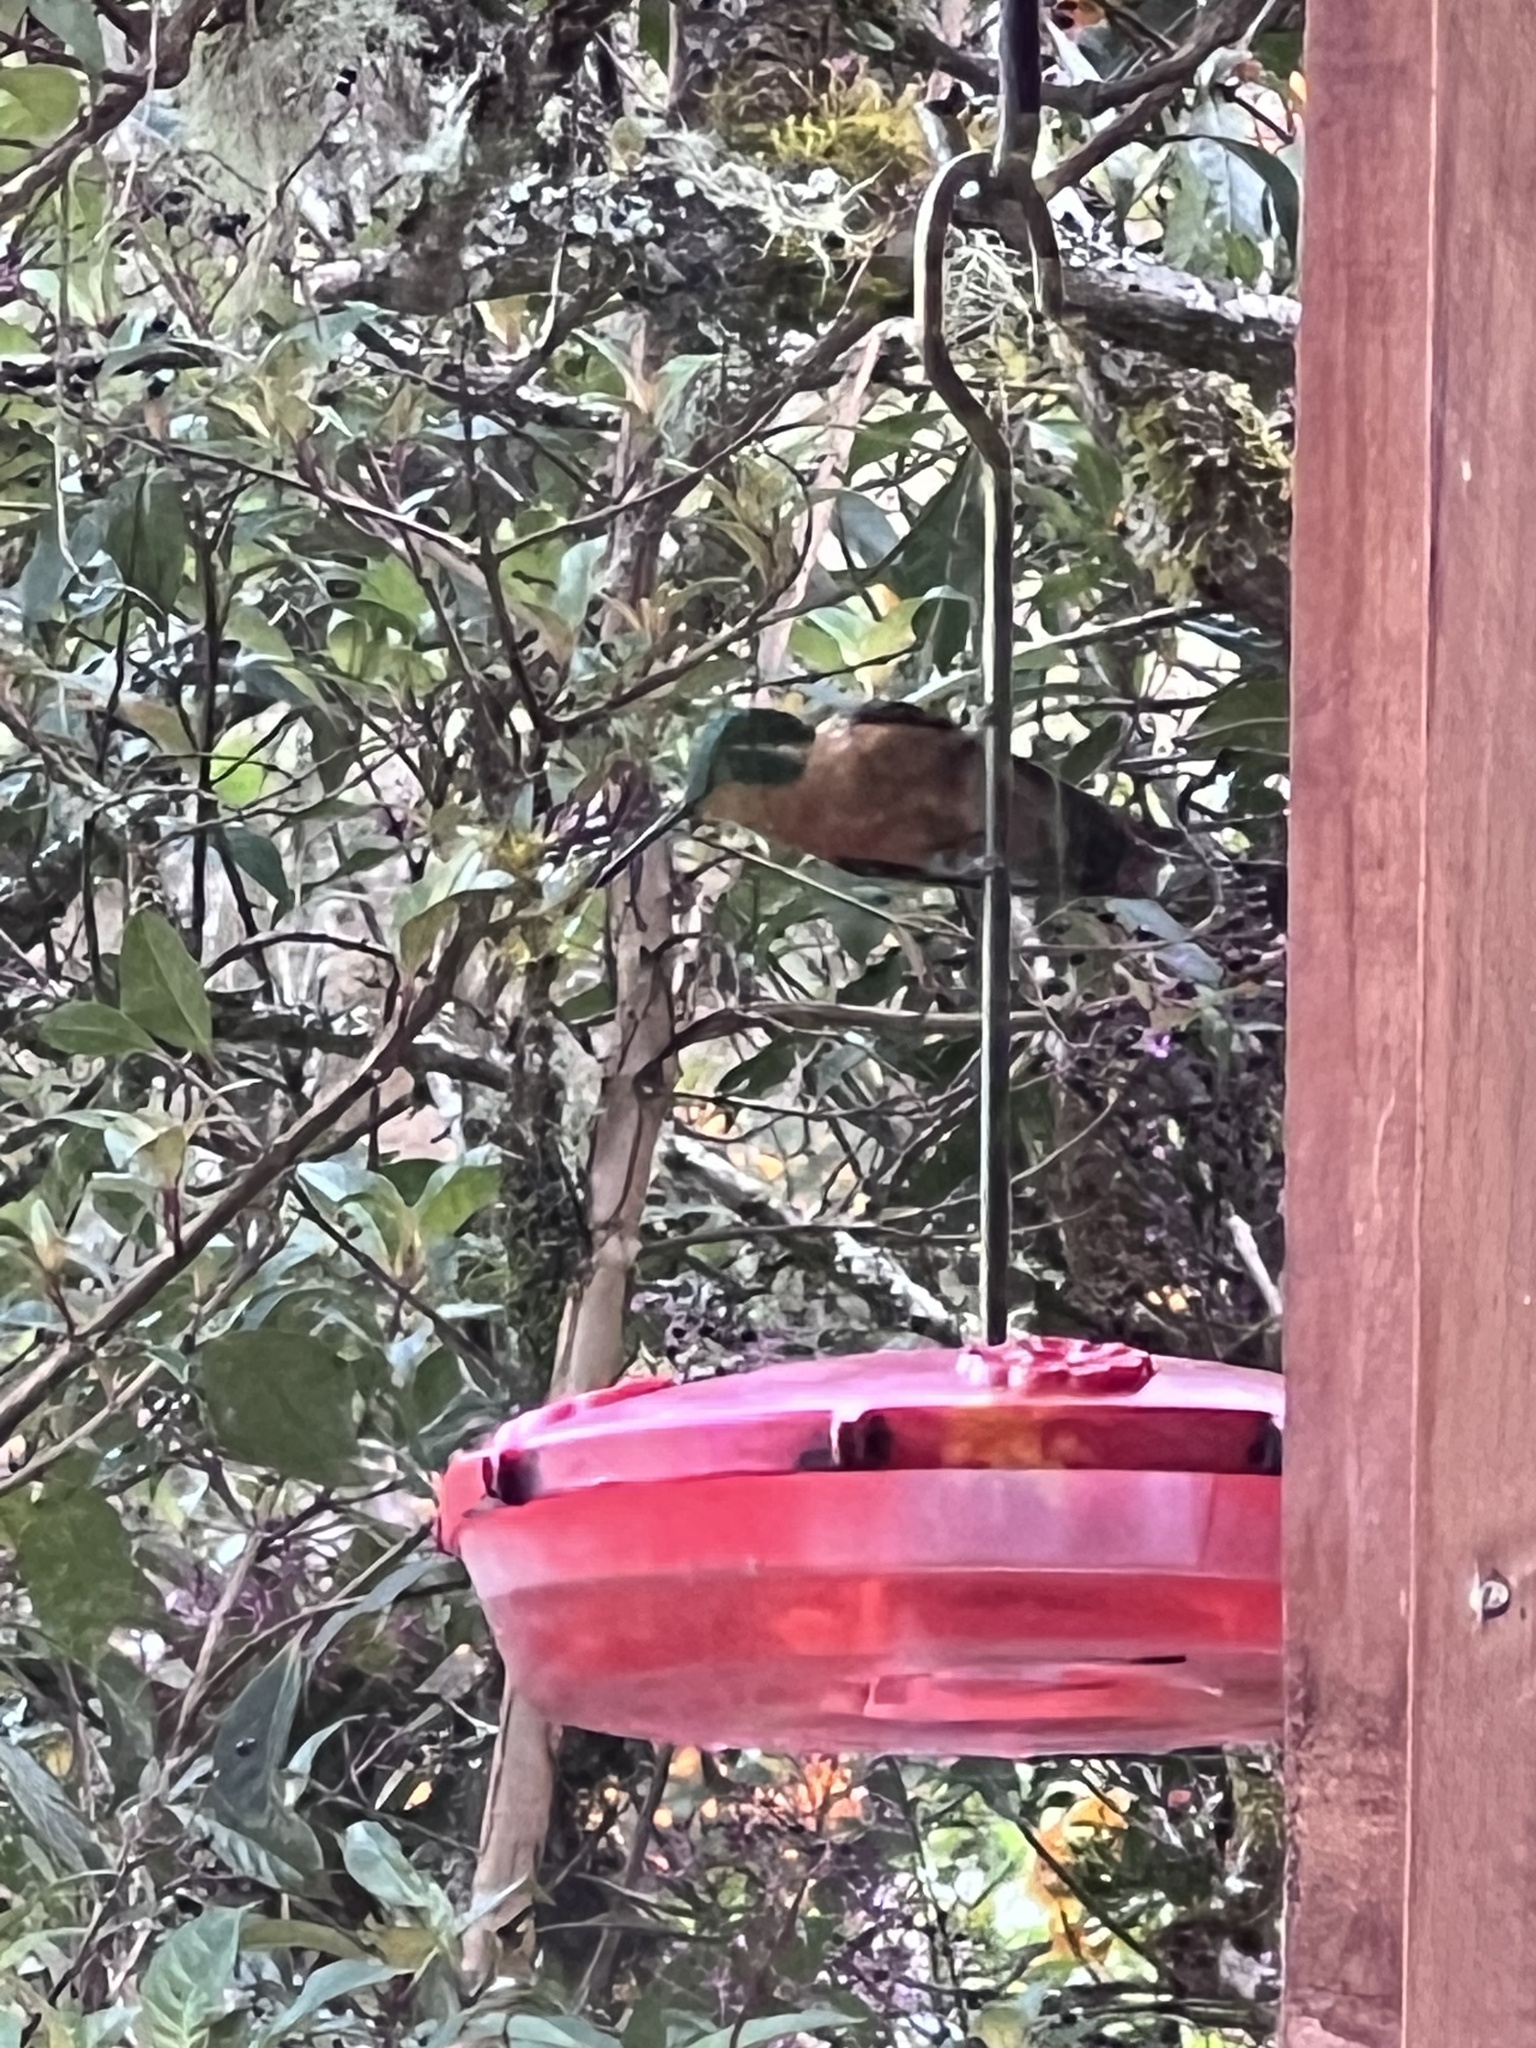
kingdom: Animalia
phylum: Chordata
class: Aves
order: Apodiformes
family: Trochilidae
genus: Lampornis
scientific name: Lampornis castaneoventris
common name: White-throated mountain-gem
